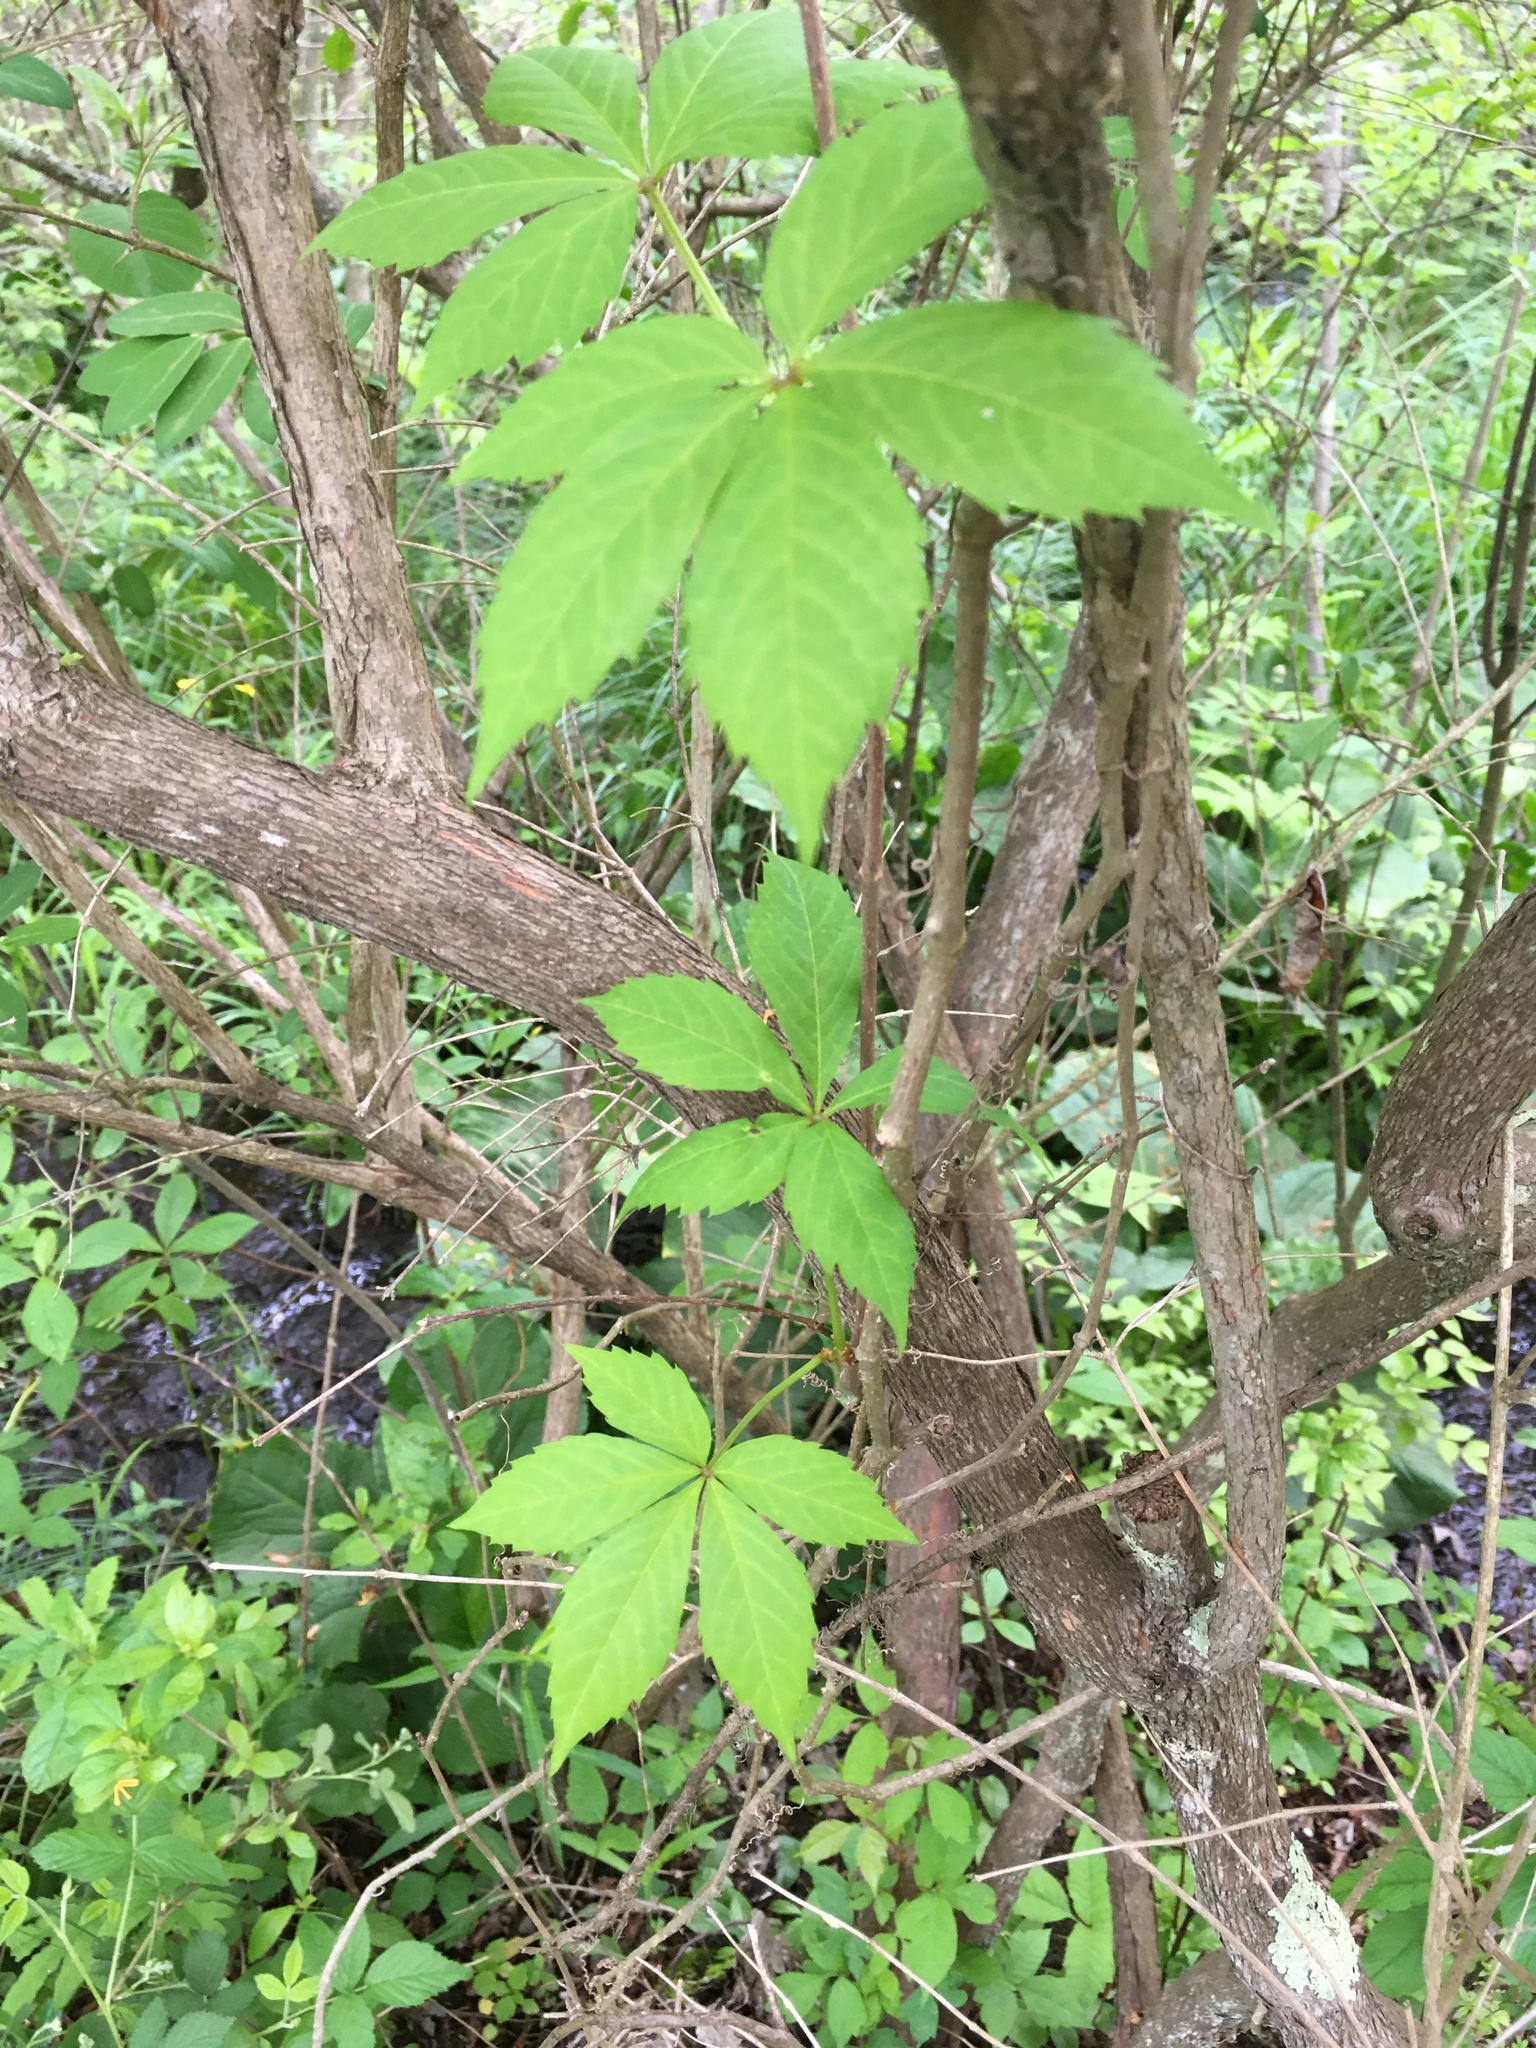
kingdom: Plantae
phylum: Tracheophyta
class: Magnoliopsida
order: Vitales
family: Vitaceae
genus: Parthenocissus
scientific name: Parthenocissus quinquefolia
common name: Virginia-creeper
